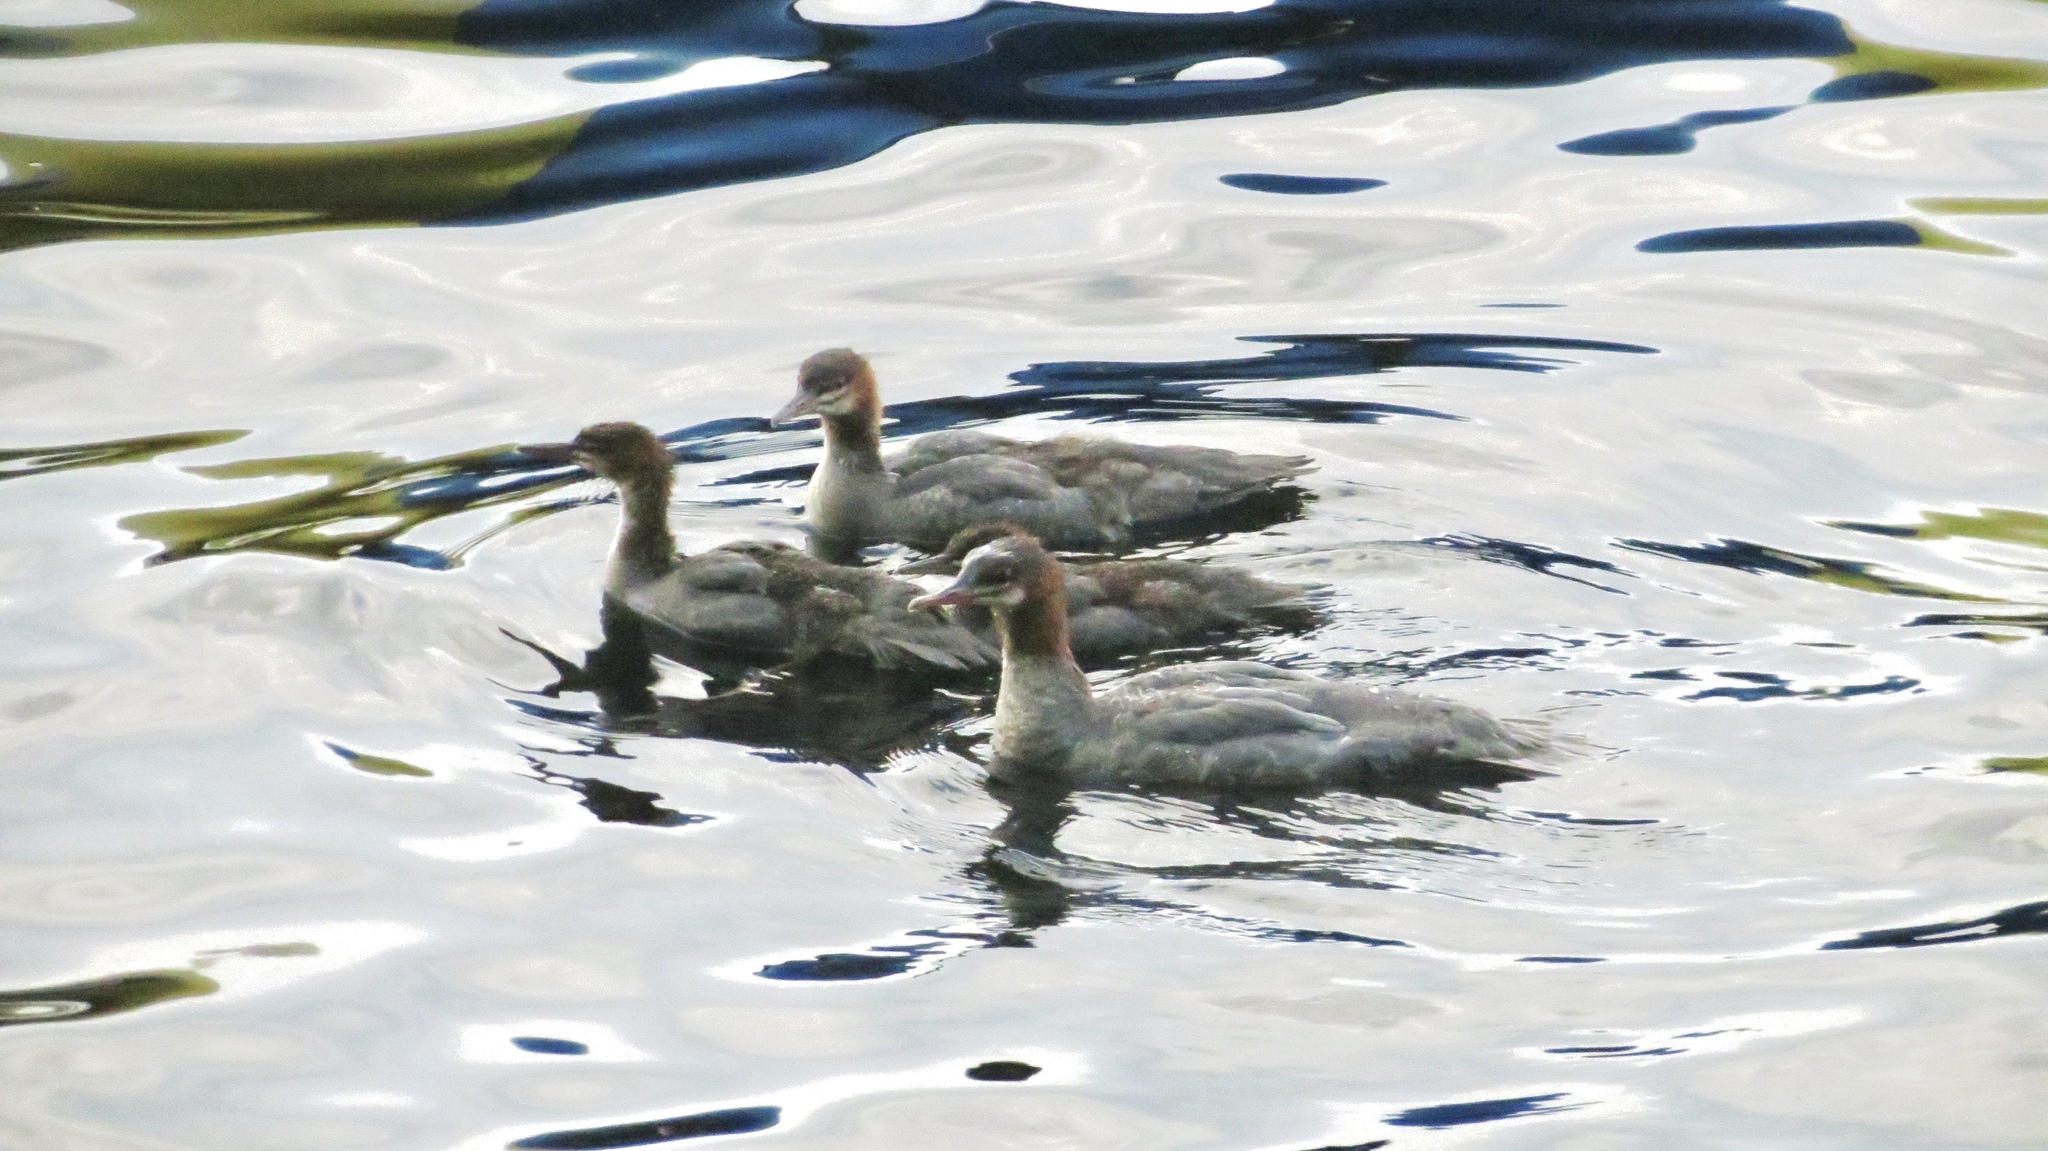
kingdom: Animalia
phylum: Chordata
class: Aves
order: Anseriformes
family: Anatidae
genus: Mergus
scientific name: Mergus merganser
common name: Common merganser
